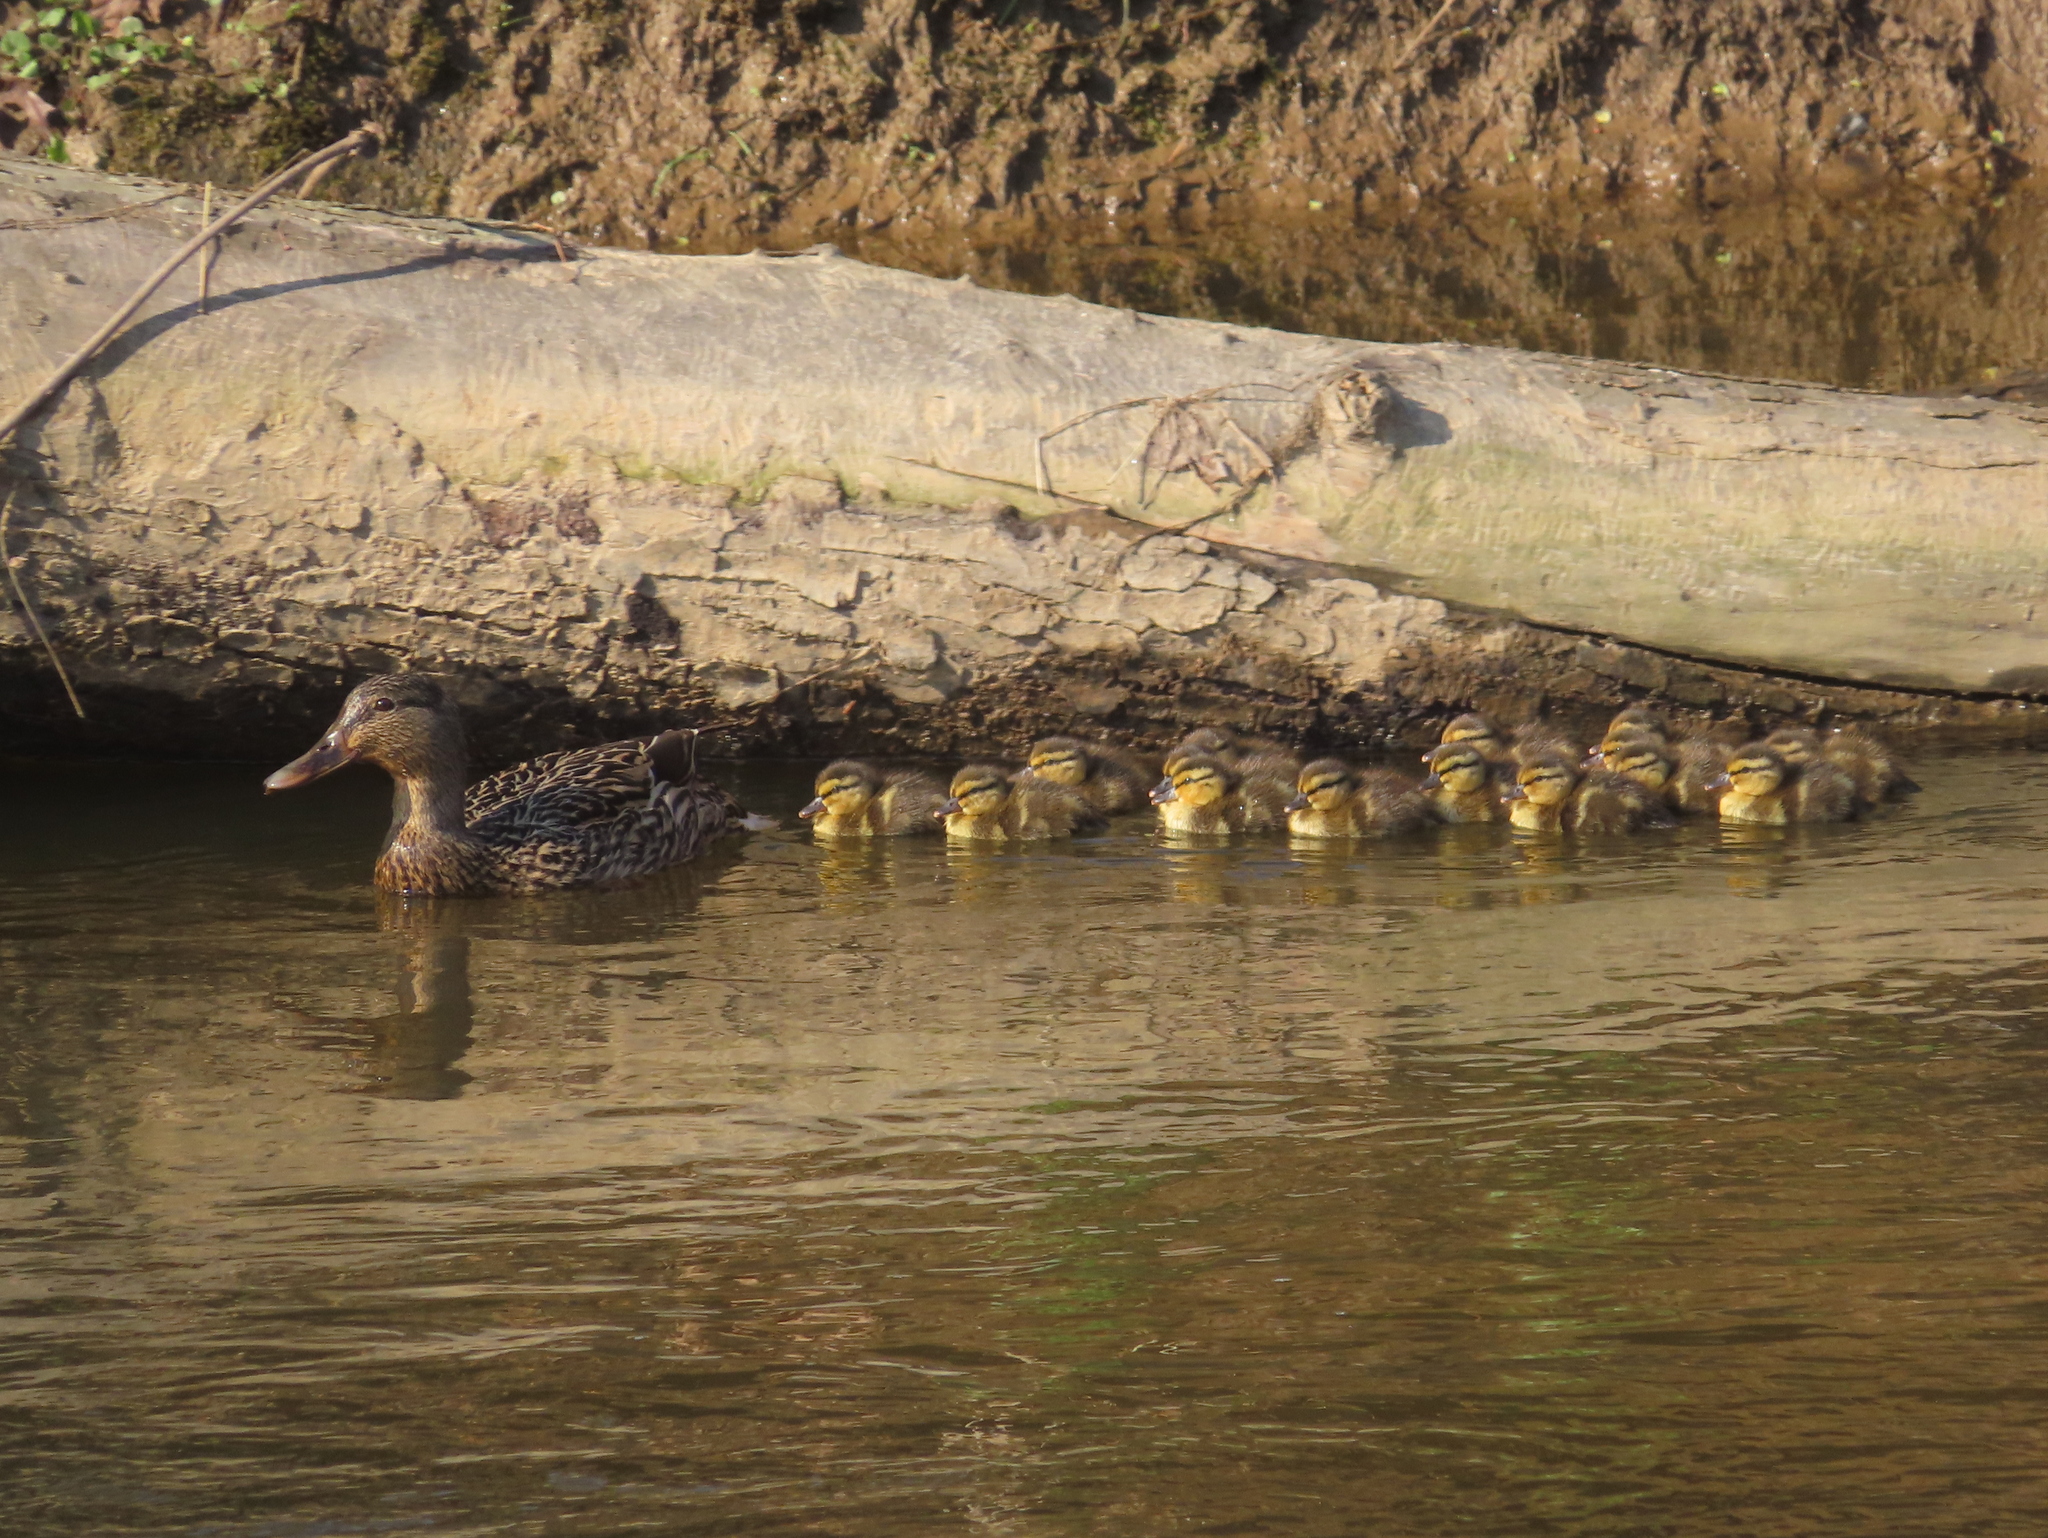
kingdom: Animalia
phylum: Chordata
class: Aves
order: Anseriformes
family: Anatidae
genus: Anas
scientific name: Anas platyrhynchos
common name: Mallard
